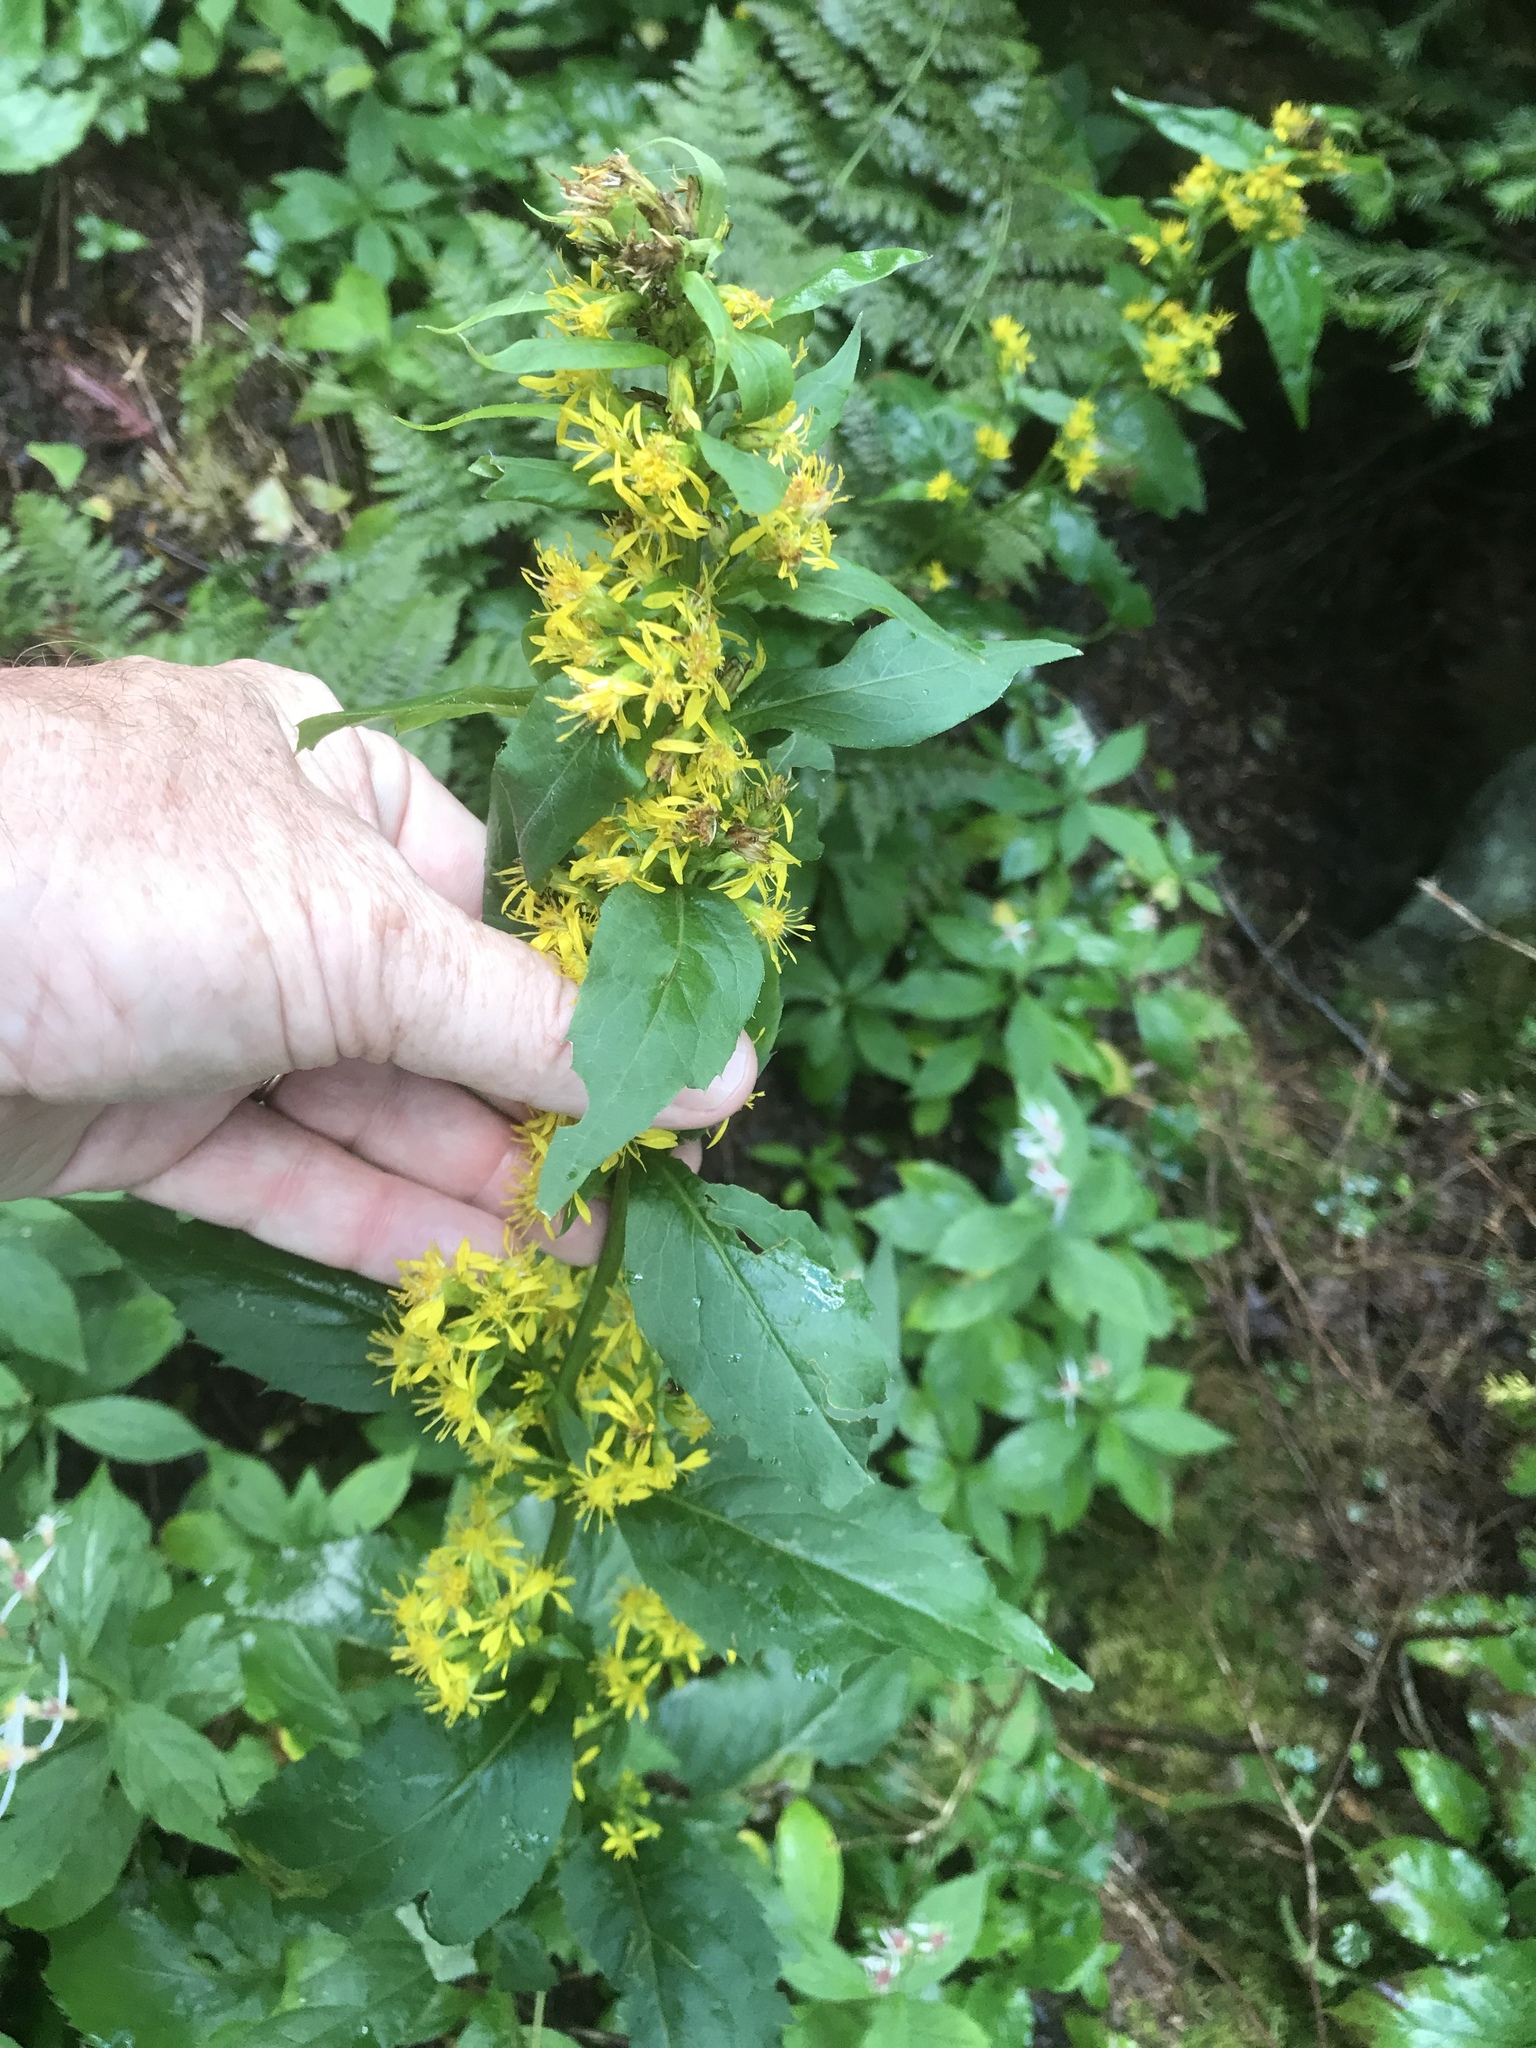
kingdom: Plantae
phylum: Tracheophyta
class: Magnoliopsida
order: Asterales
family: Asteraceae
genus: Solidago
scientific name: Solidago macrophylla
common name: Large-leaved goldenrod
